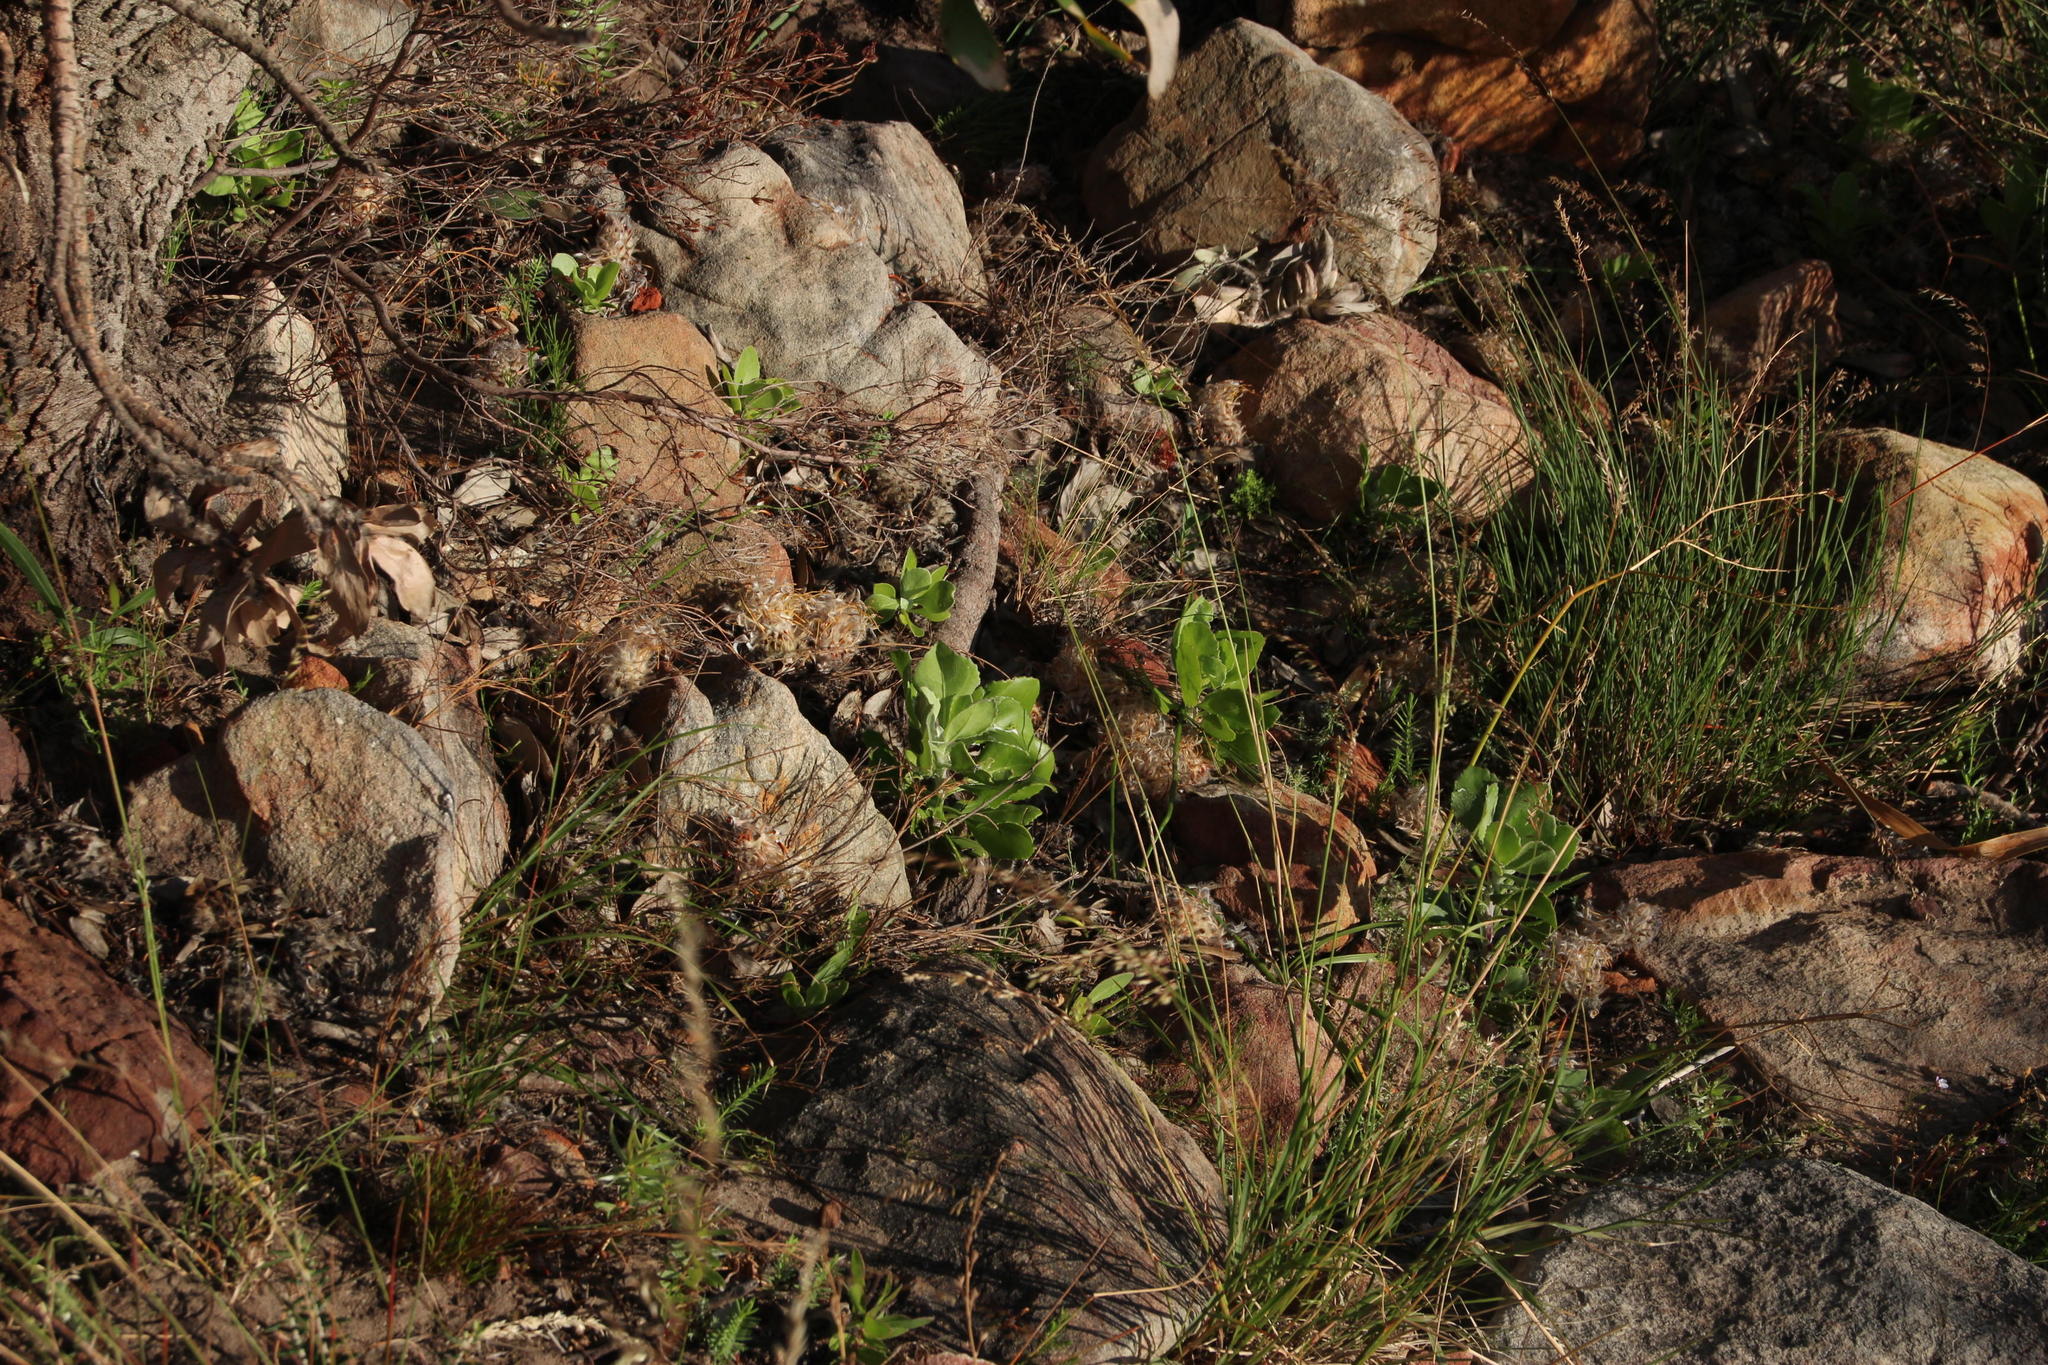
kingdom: Plantae
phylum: Tracheophyta
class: Magnoliopsida
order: Asterales
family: Asteraceae
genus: Osteospermum
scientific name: Osteospermum moniliferum
